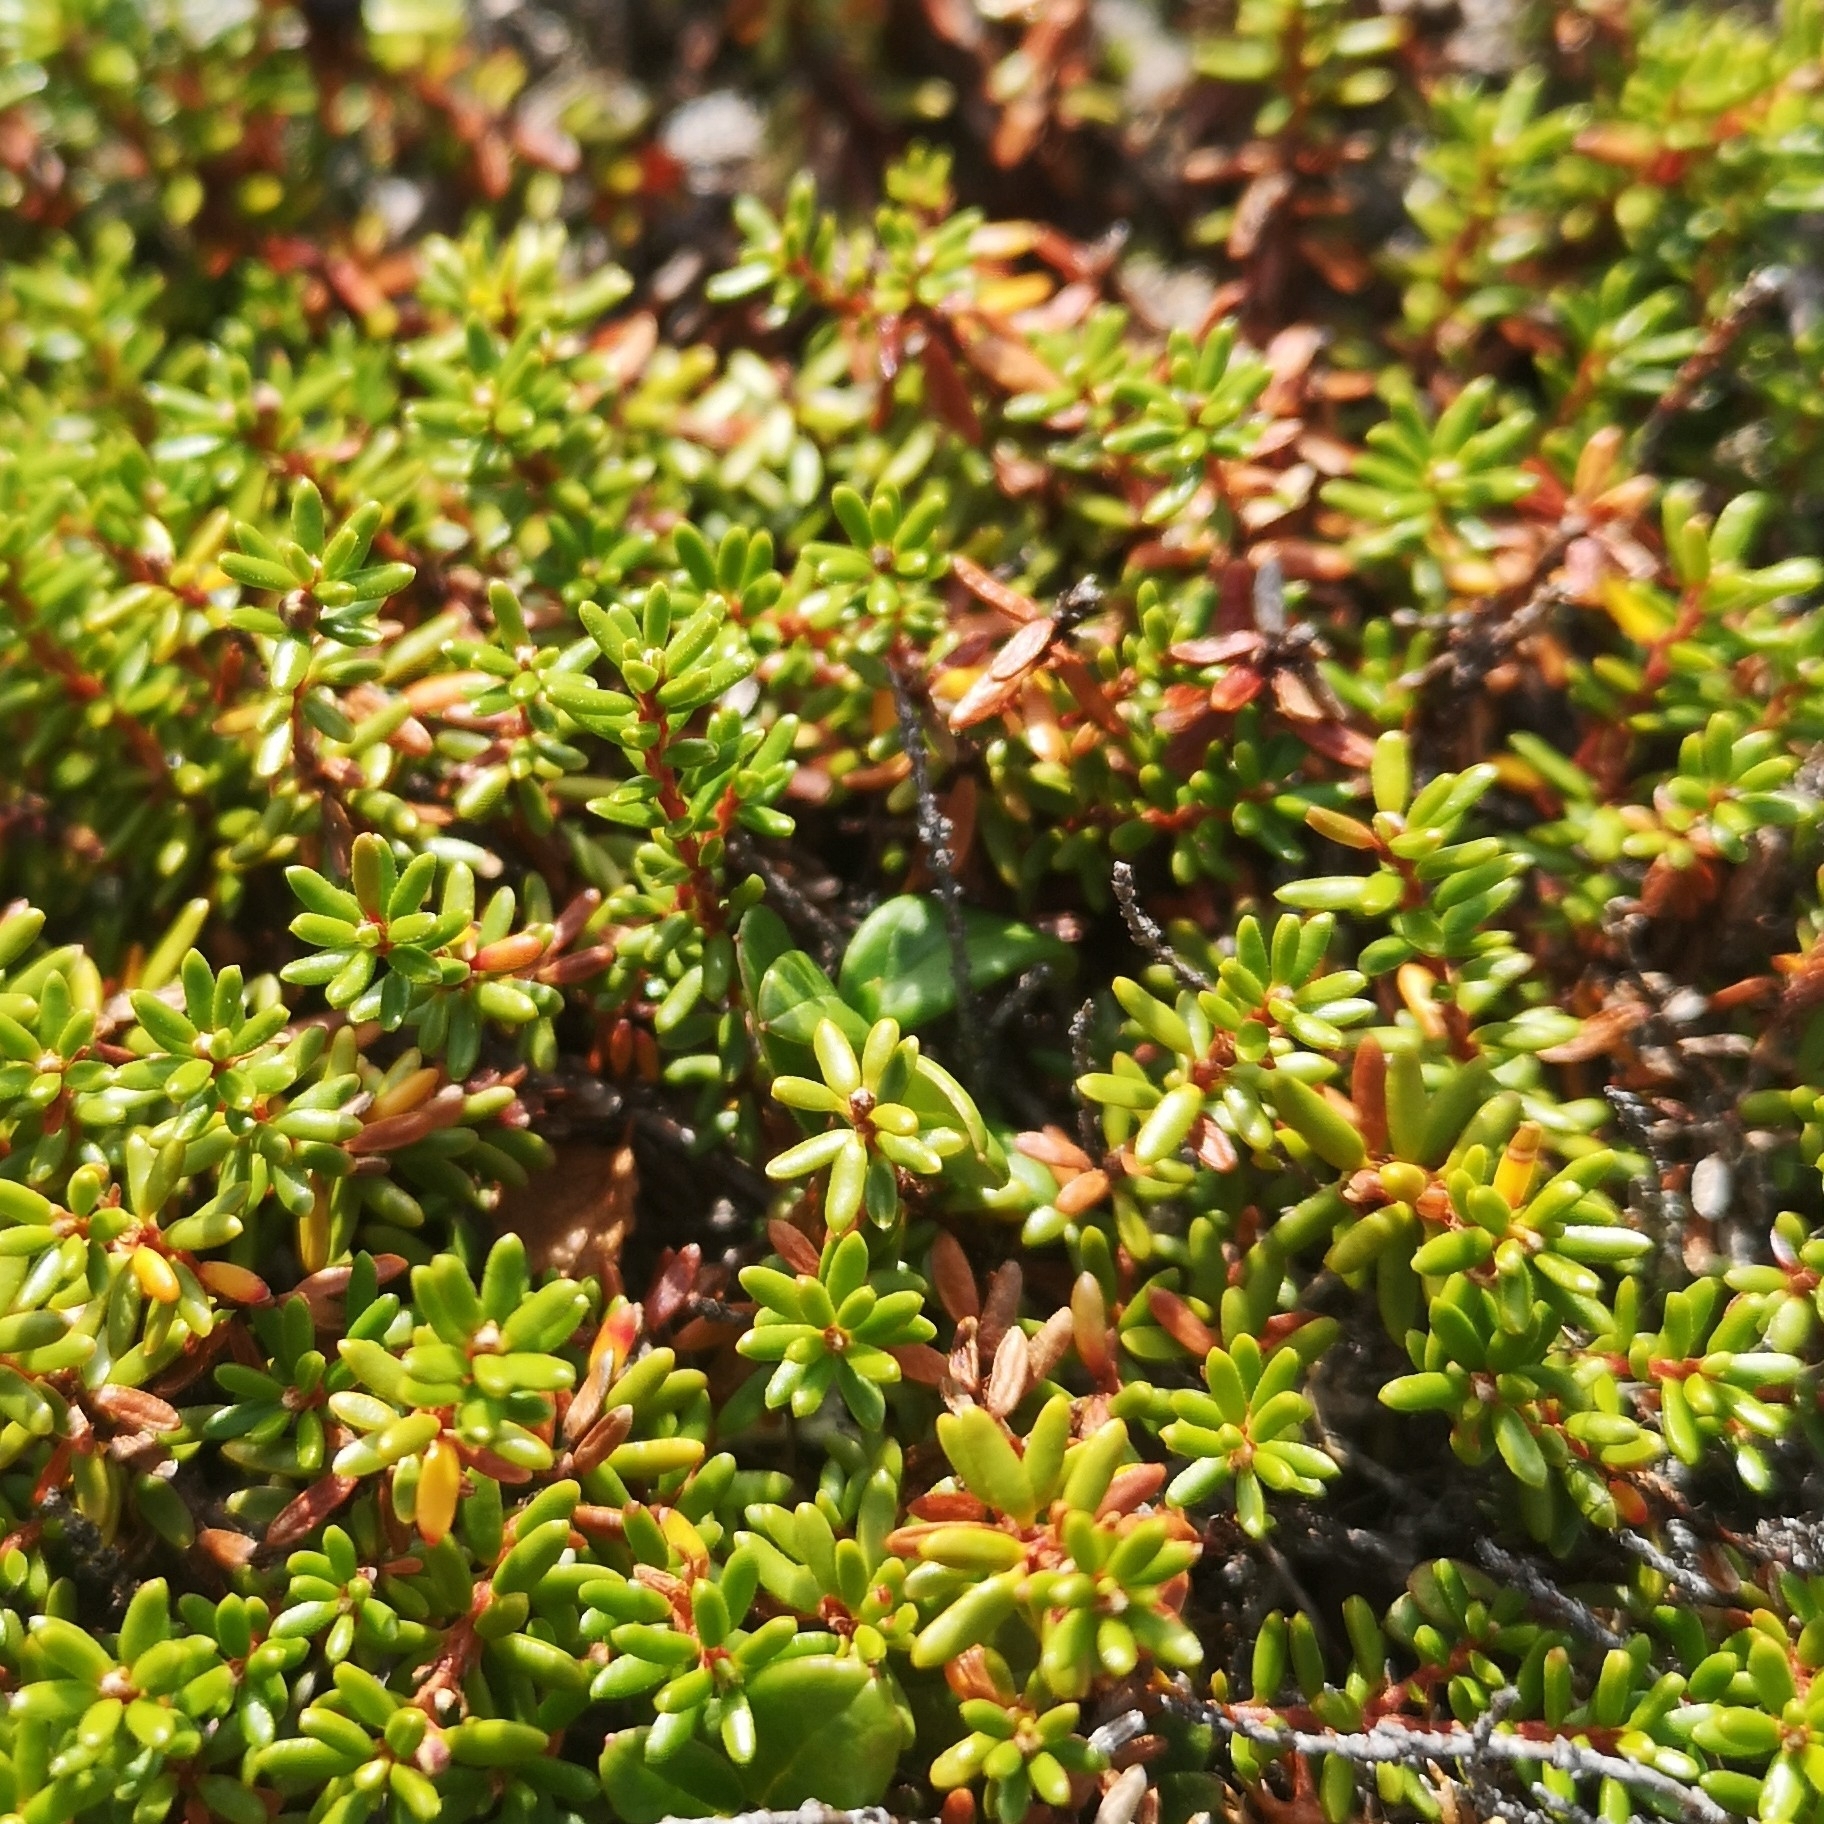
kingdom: Plantae
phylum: Tracheophyta
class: Magnoliopsida
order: Ericales
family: Ericaceae
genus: Empetrum
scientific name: Empetrum nigrum
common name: Black crowberry
